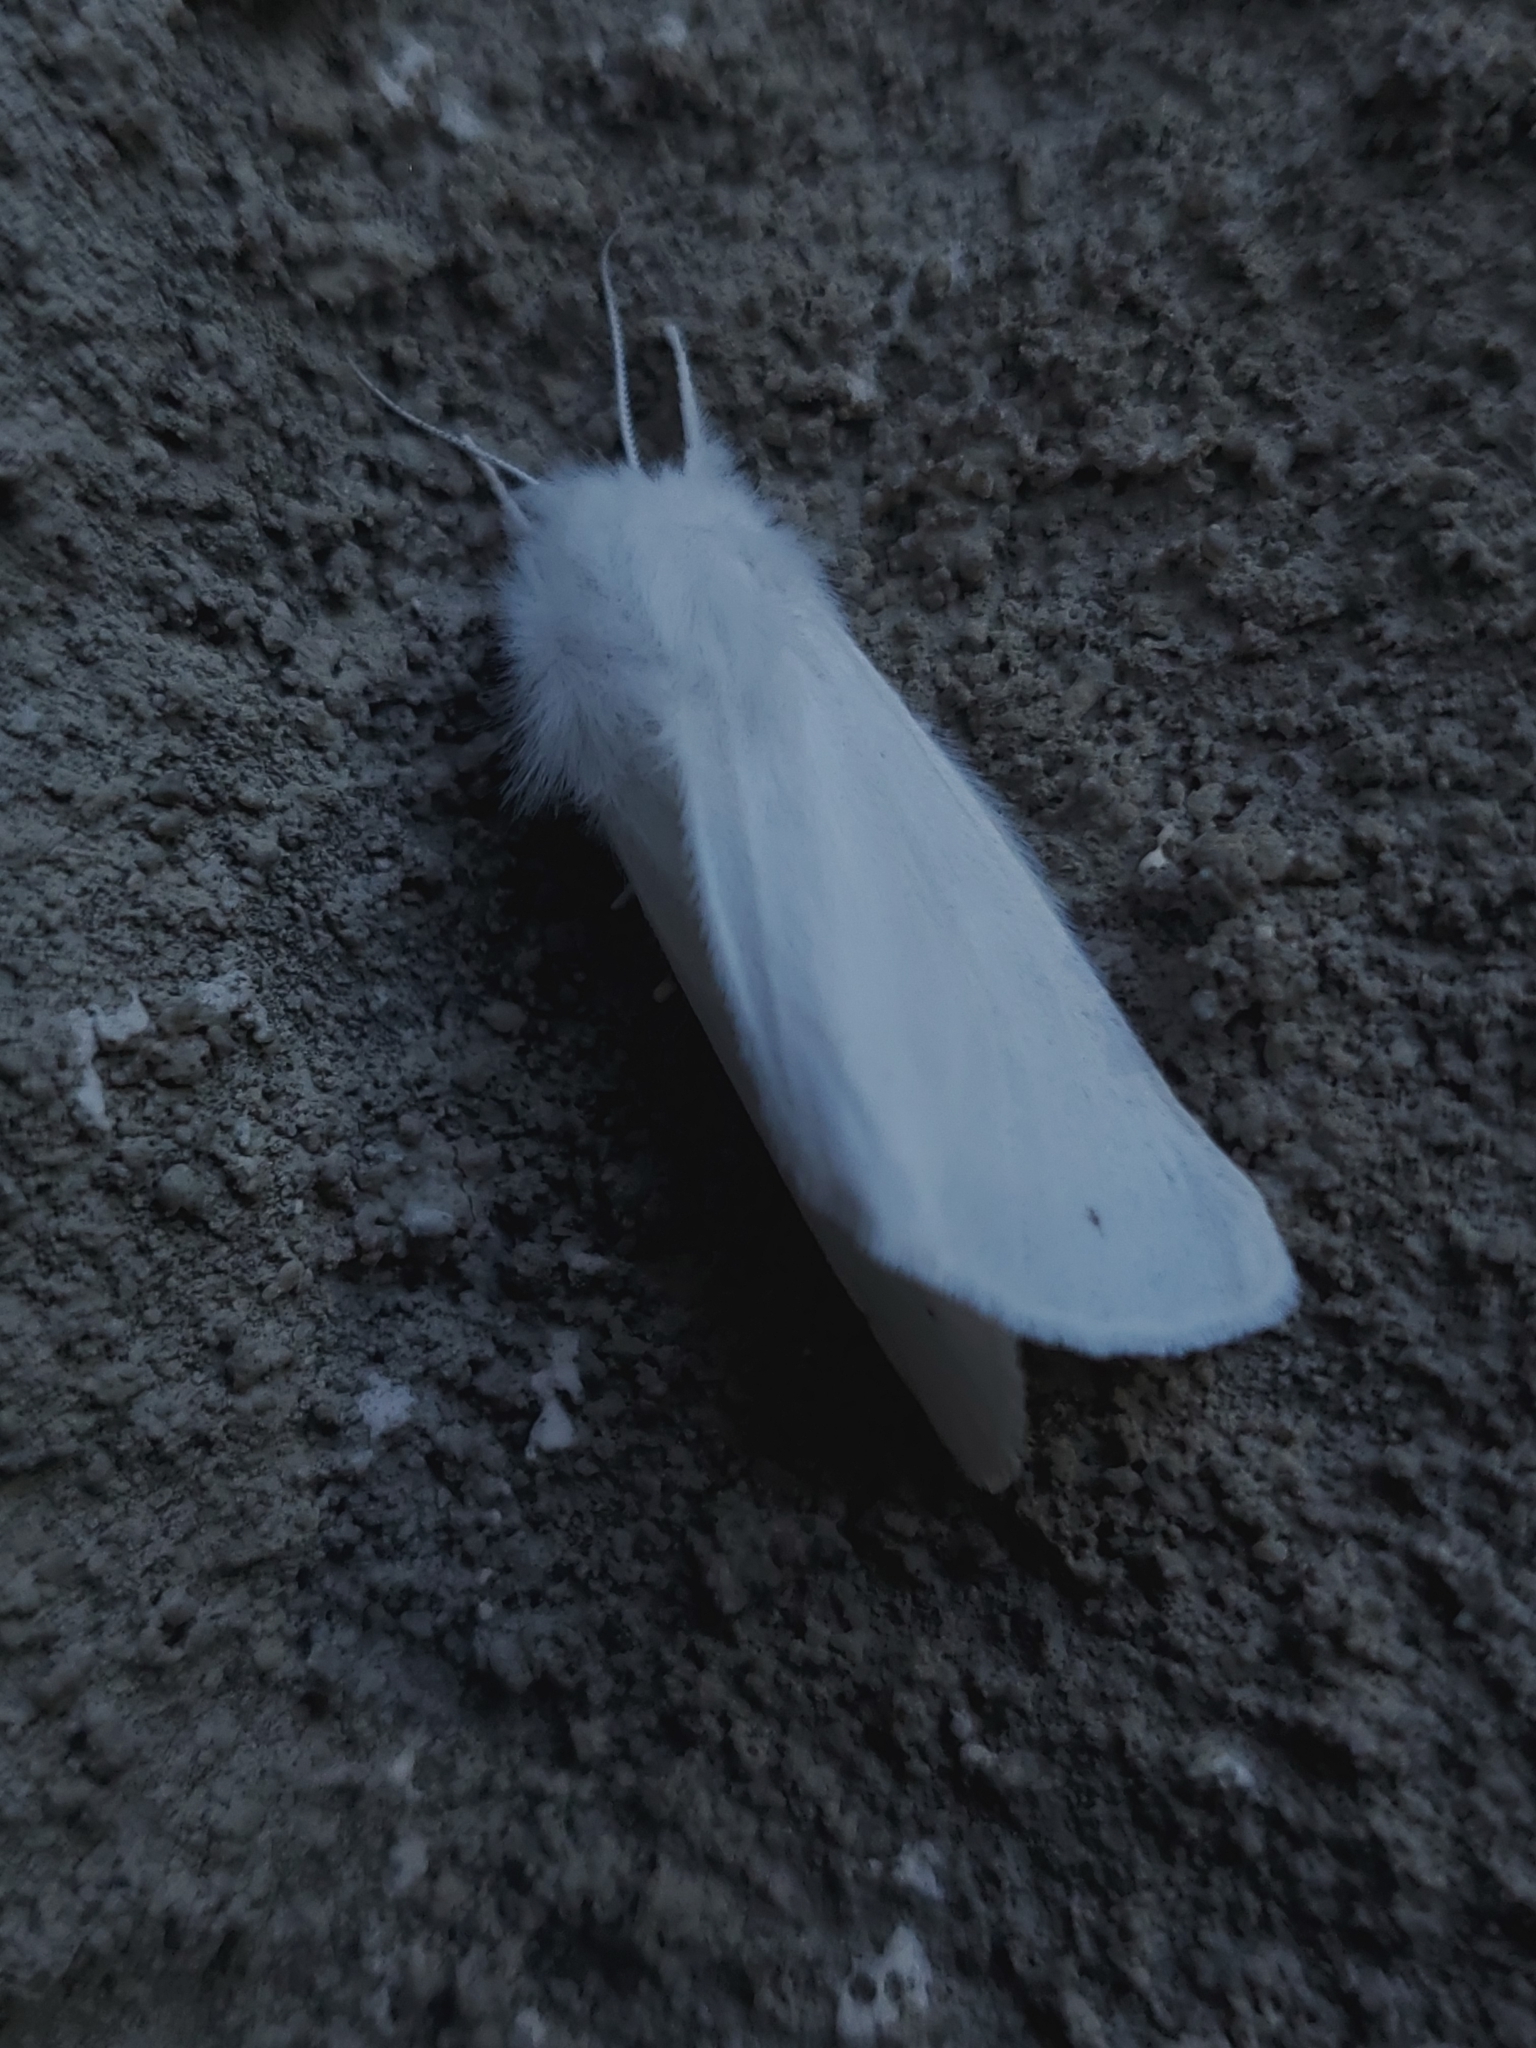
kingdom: Animalia
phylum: Arthropoda
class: Insecta
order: Lepidoptera
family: Erebidae
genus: Spilosoma
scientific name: Spilosoma virginica
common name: Virginia tiger moth
